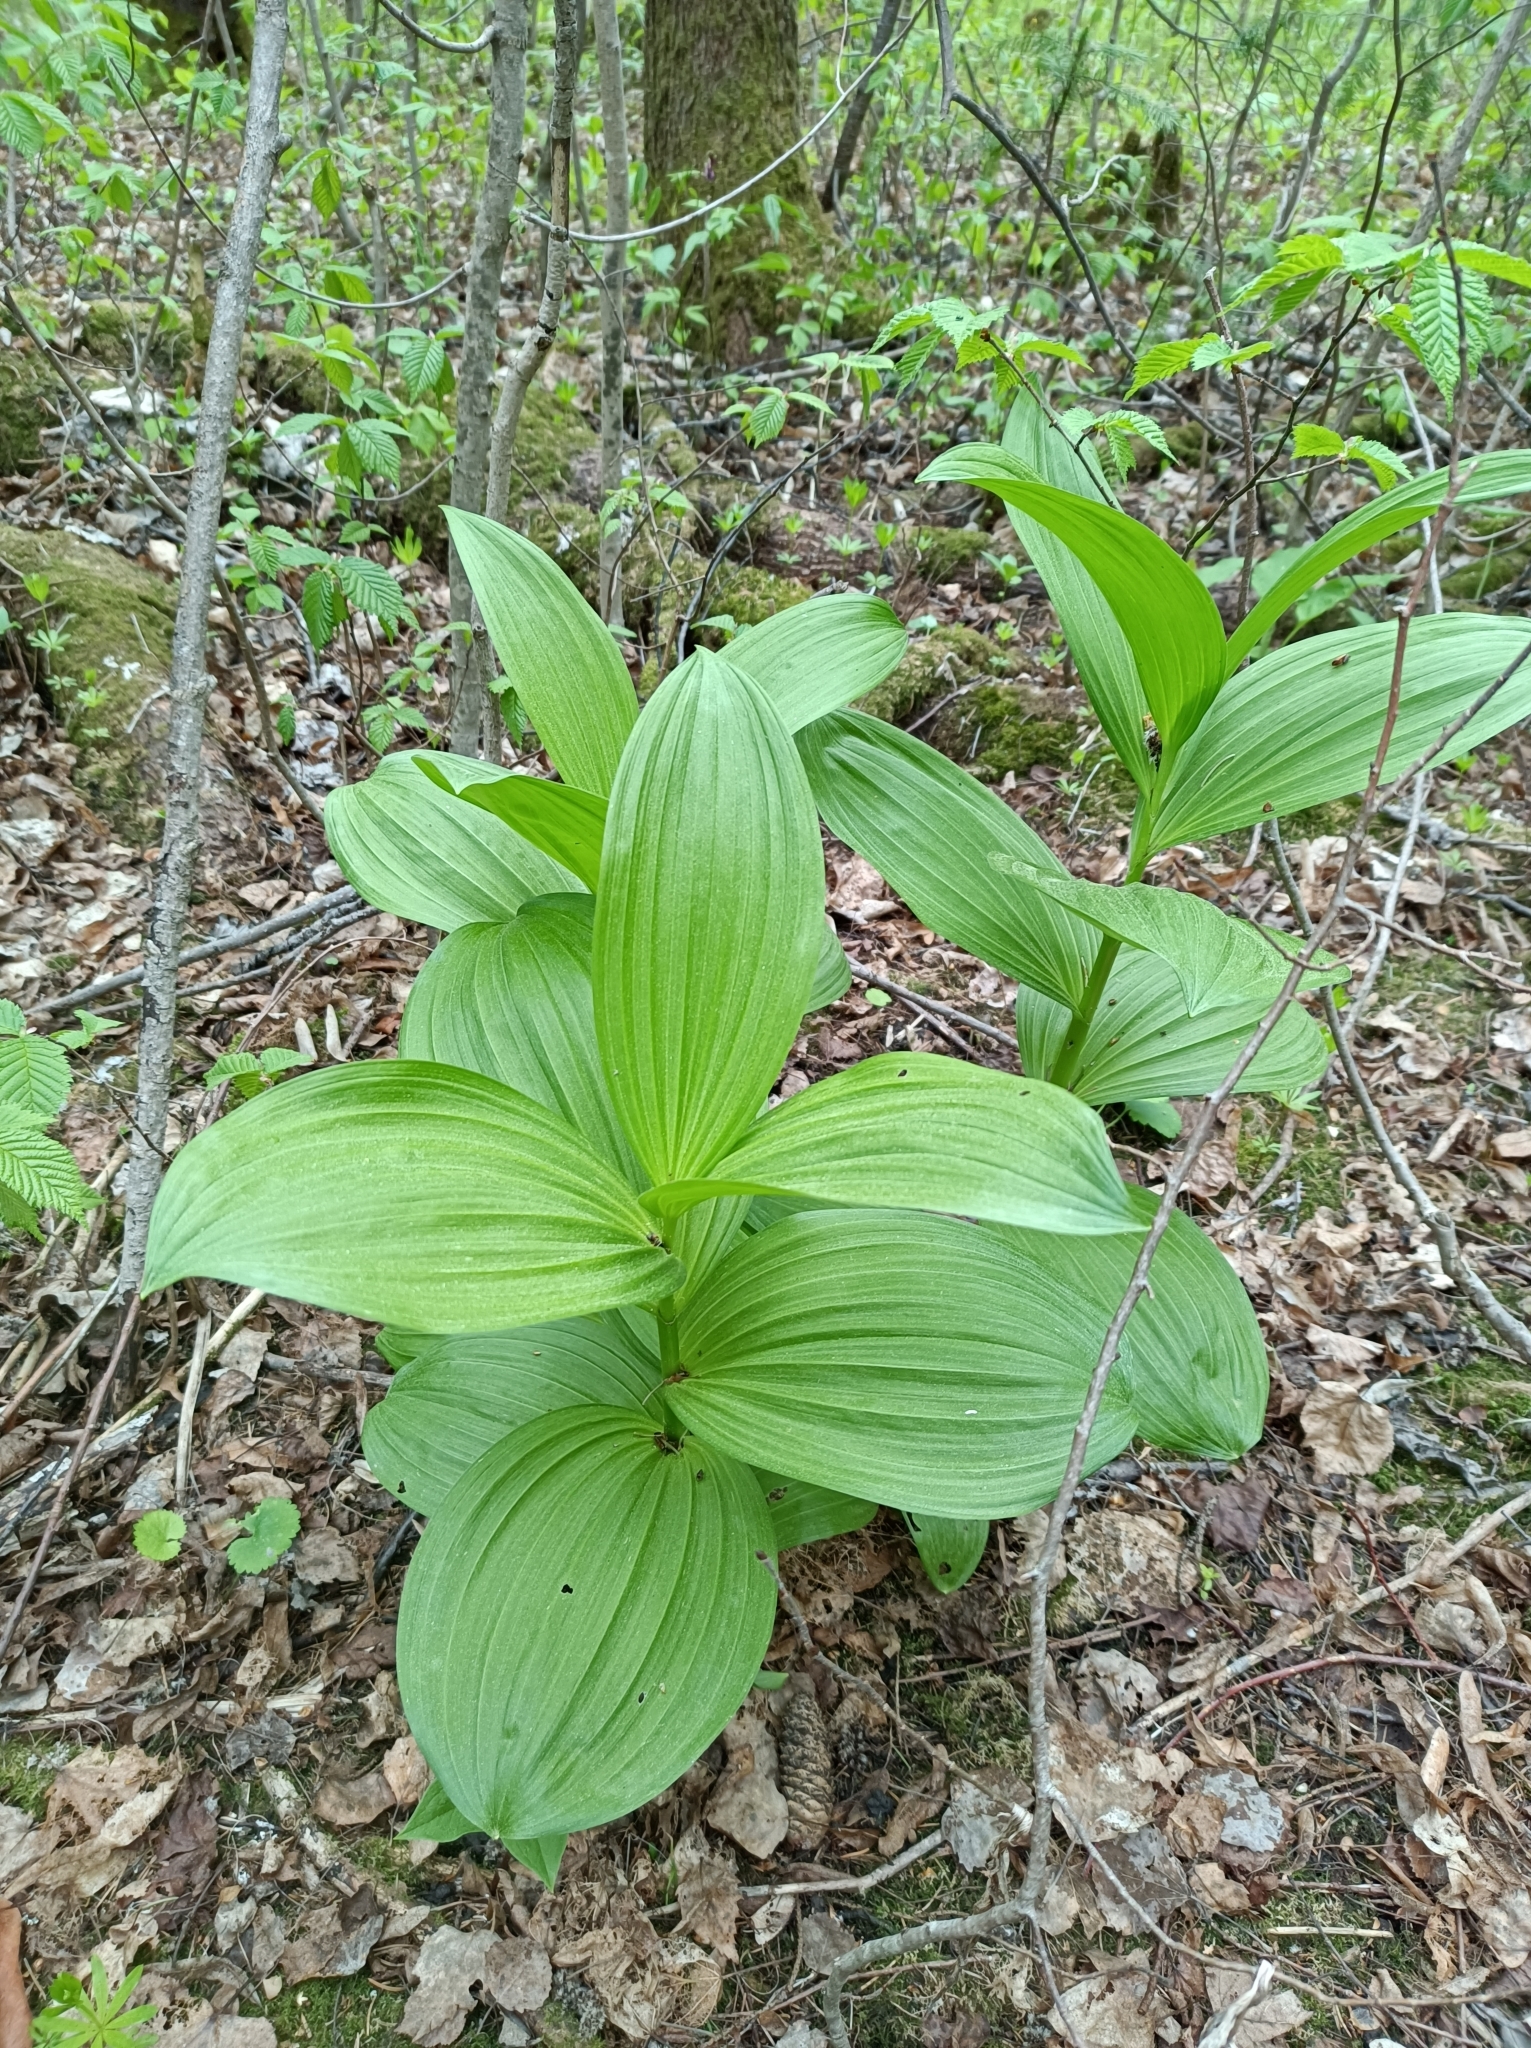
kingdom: Plantae
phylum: Tracheophyta
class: Liliopsida
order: Liliales
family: Melanthiaceae
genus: Veratrum
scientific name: Veratrum lobelianum
